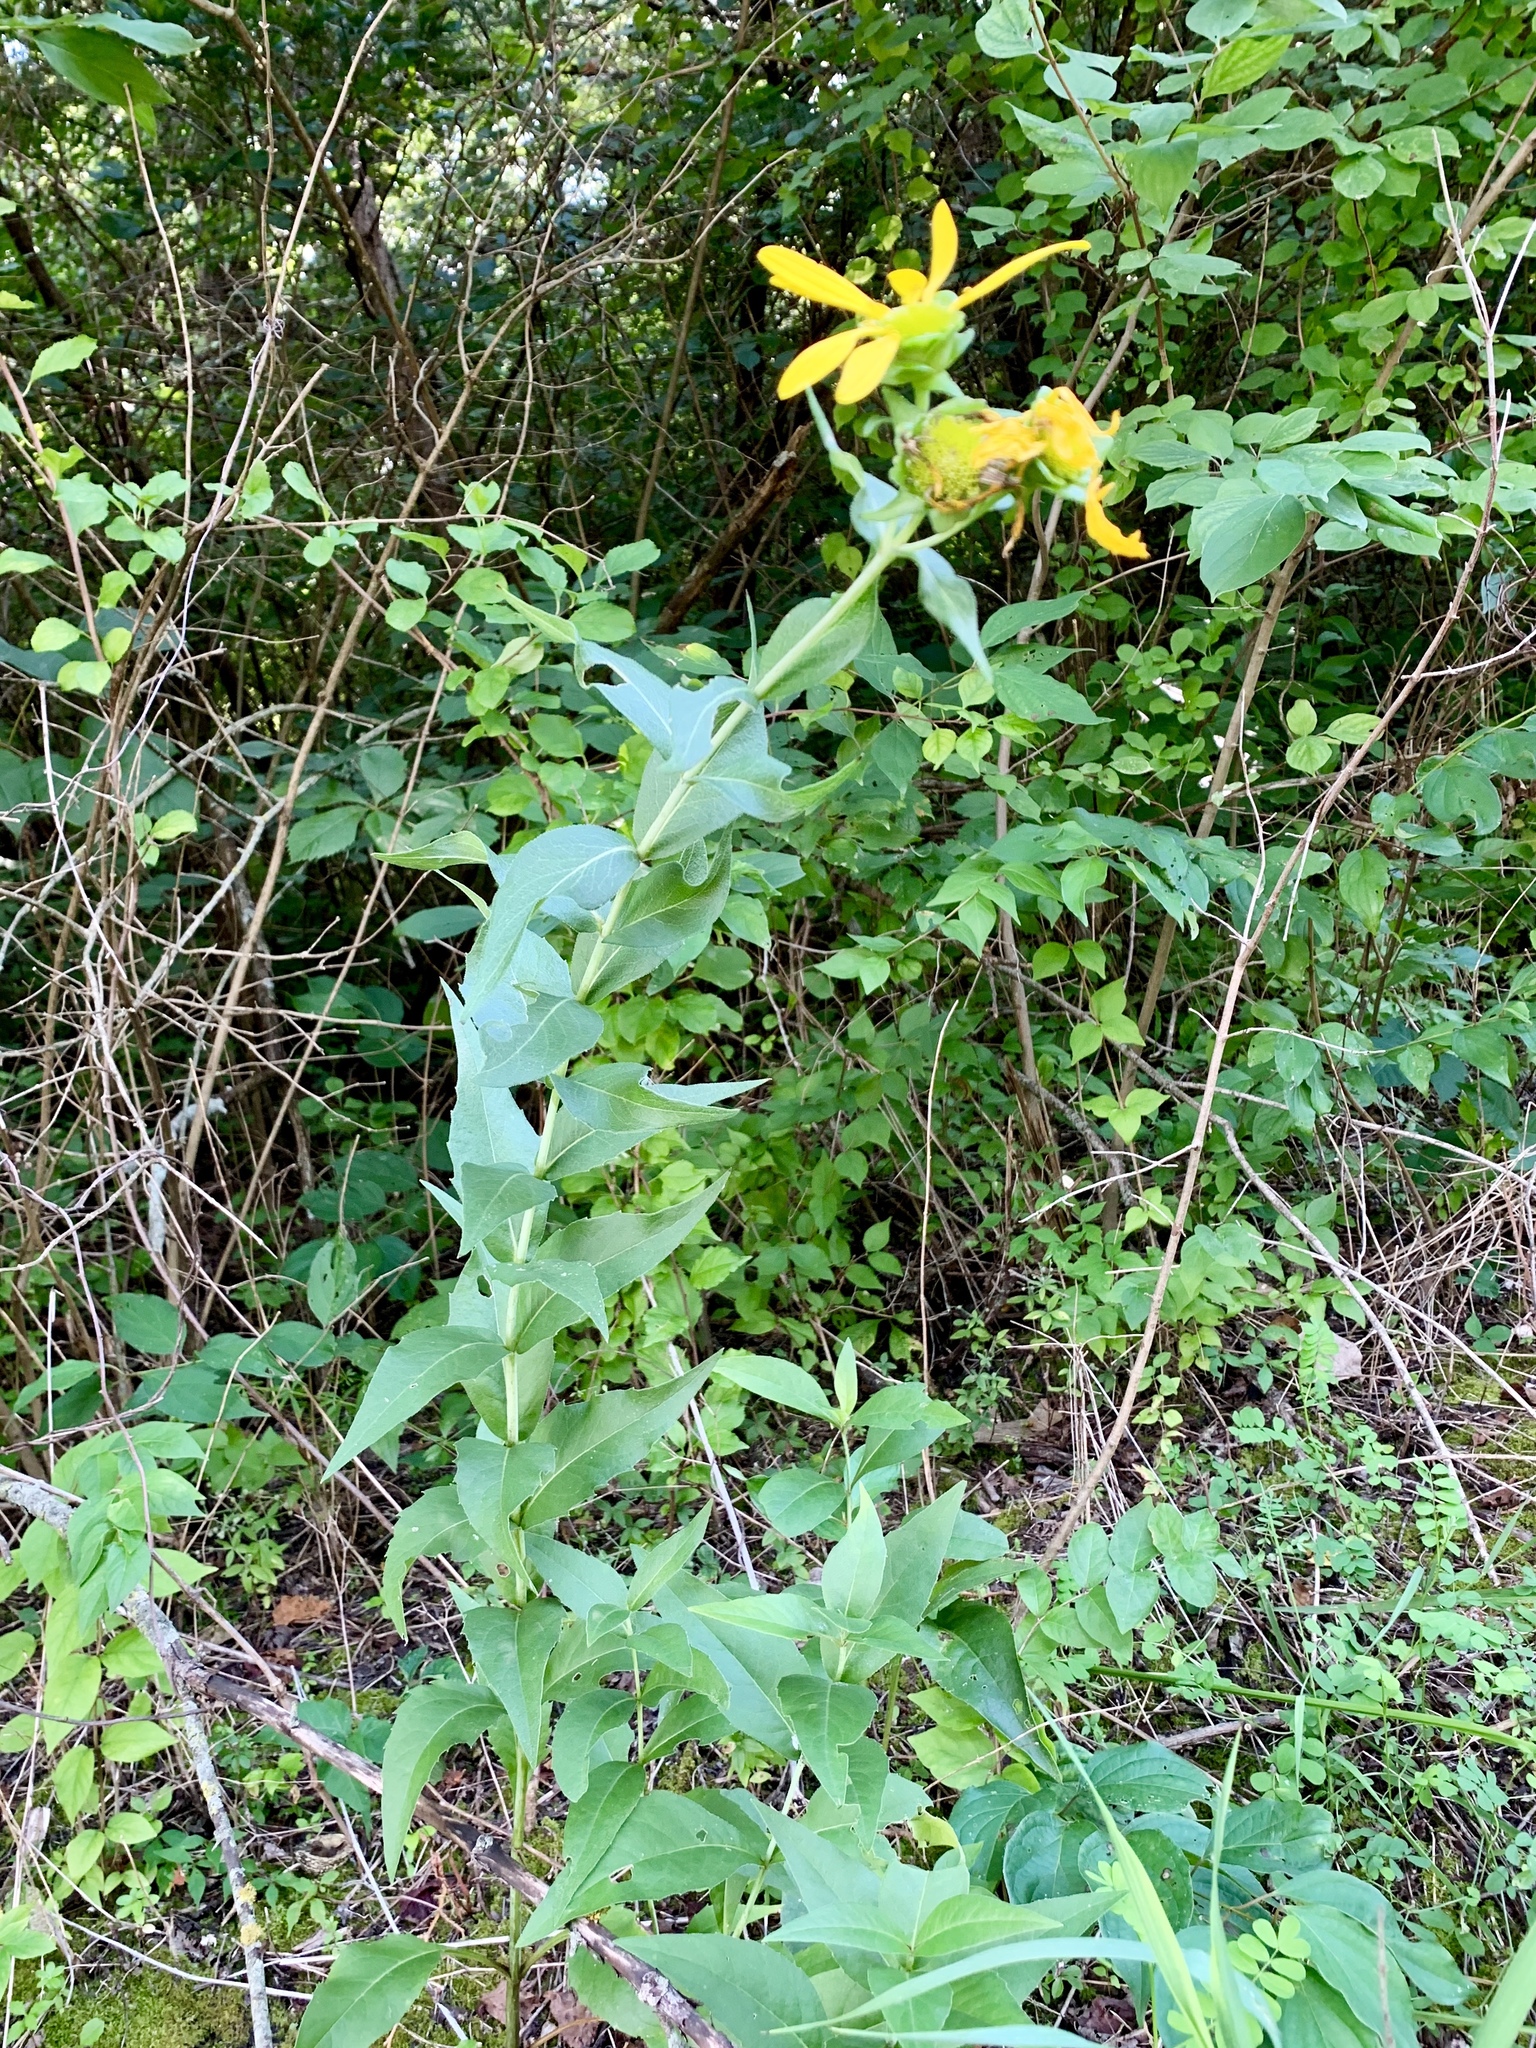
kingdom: Plantae
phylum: Tracheophyta
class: Magnoliopsida
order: Asterales
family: Asteraceae
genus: Silphium
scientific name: Silphium integrifolium
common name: Whole-leaf rosinweed
